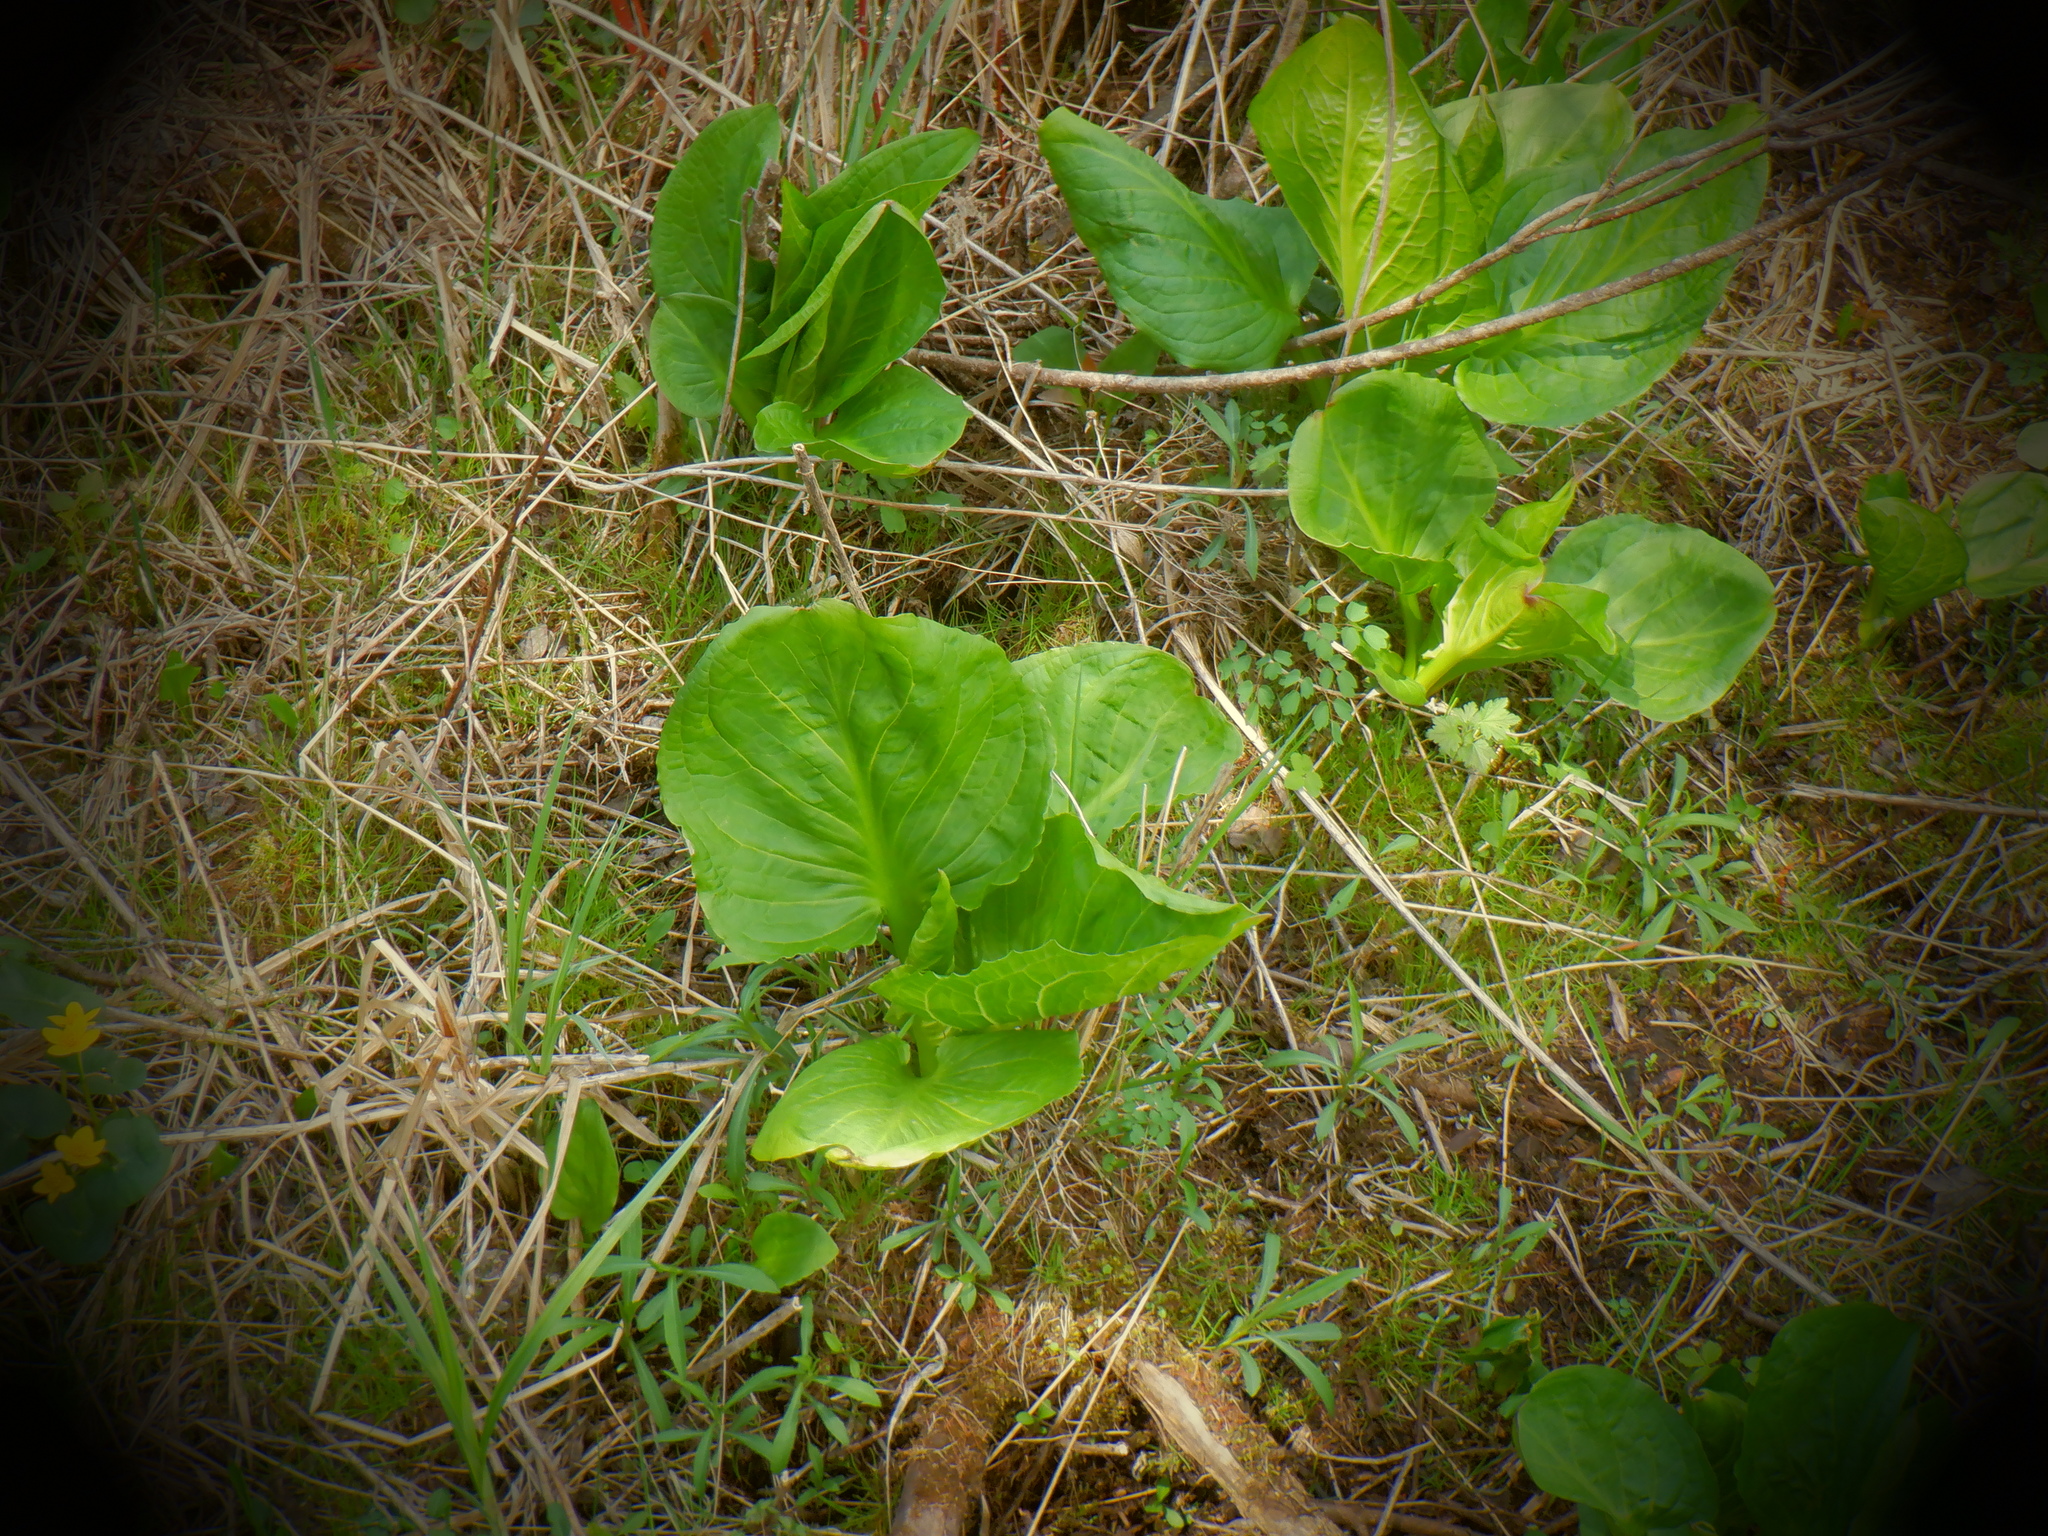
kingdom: Plantae
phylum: Tracheophyta
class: Liliopsida
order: Alismatales
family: Araceae
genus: Symplocarpus
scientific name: Symplocarpus foetidus
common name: Eastern skunk cabbage
